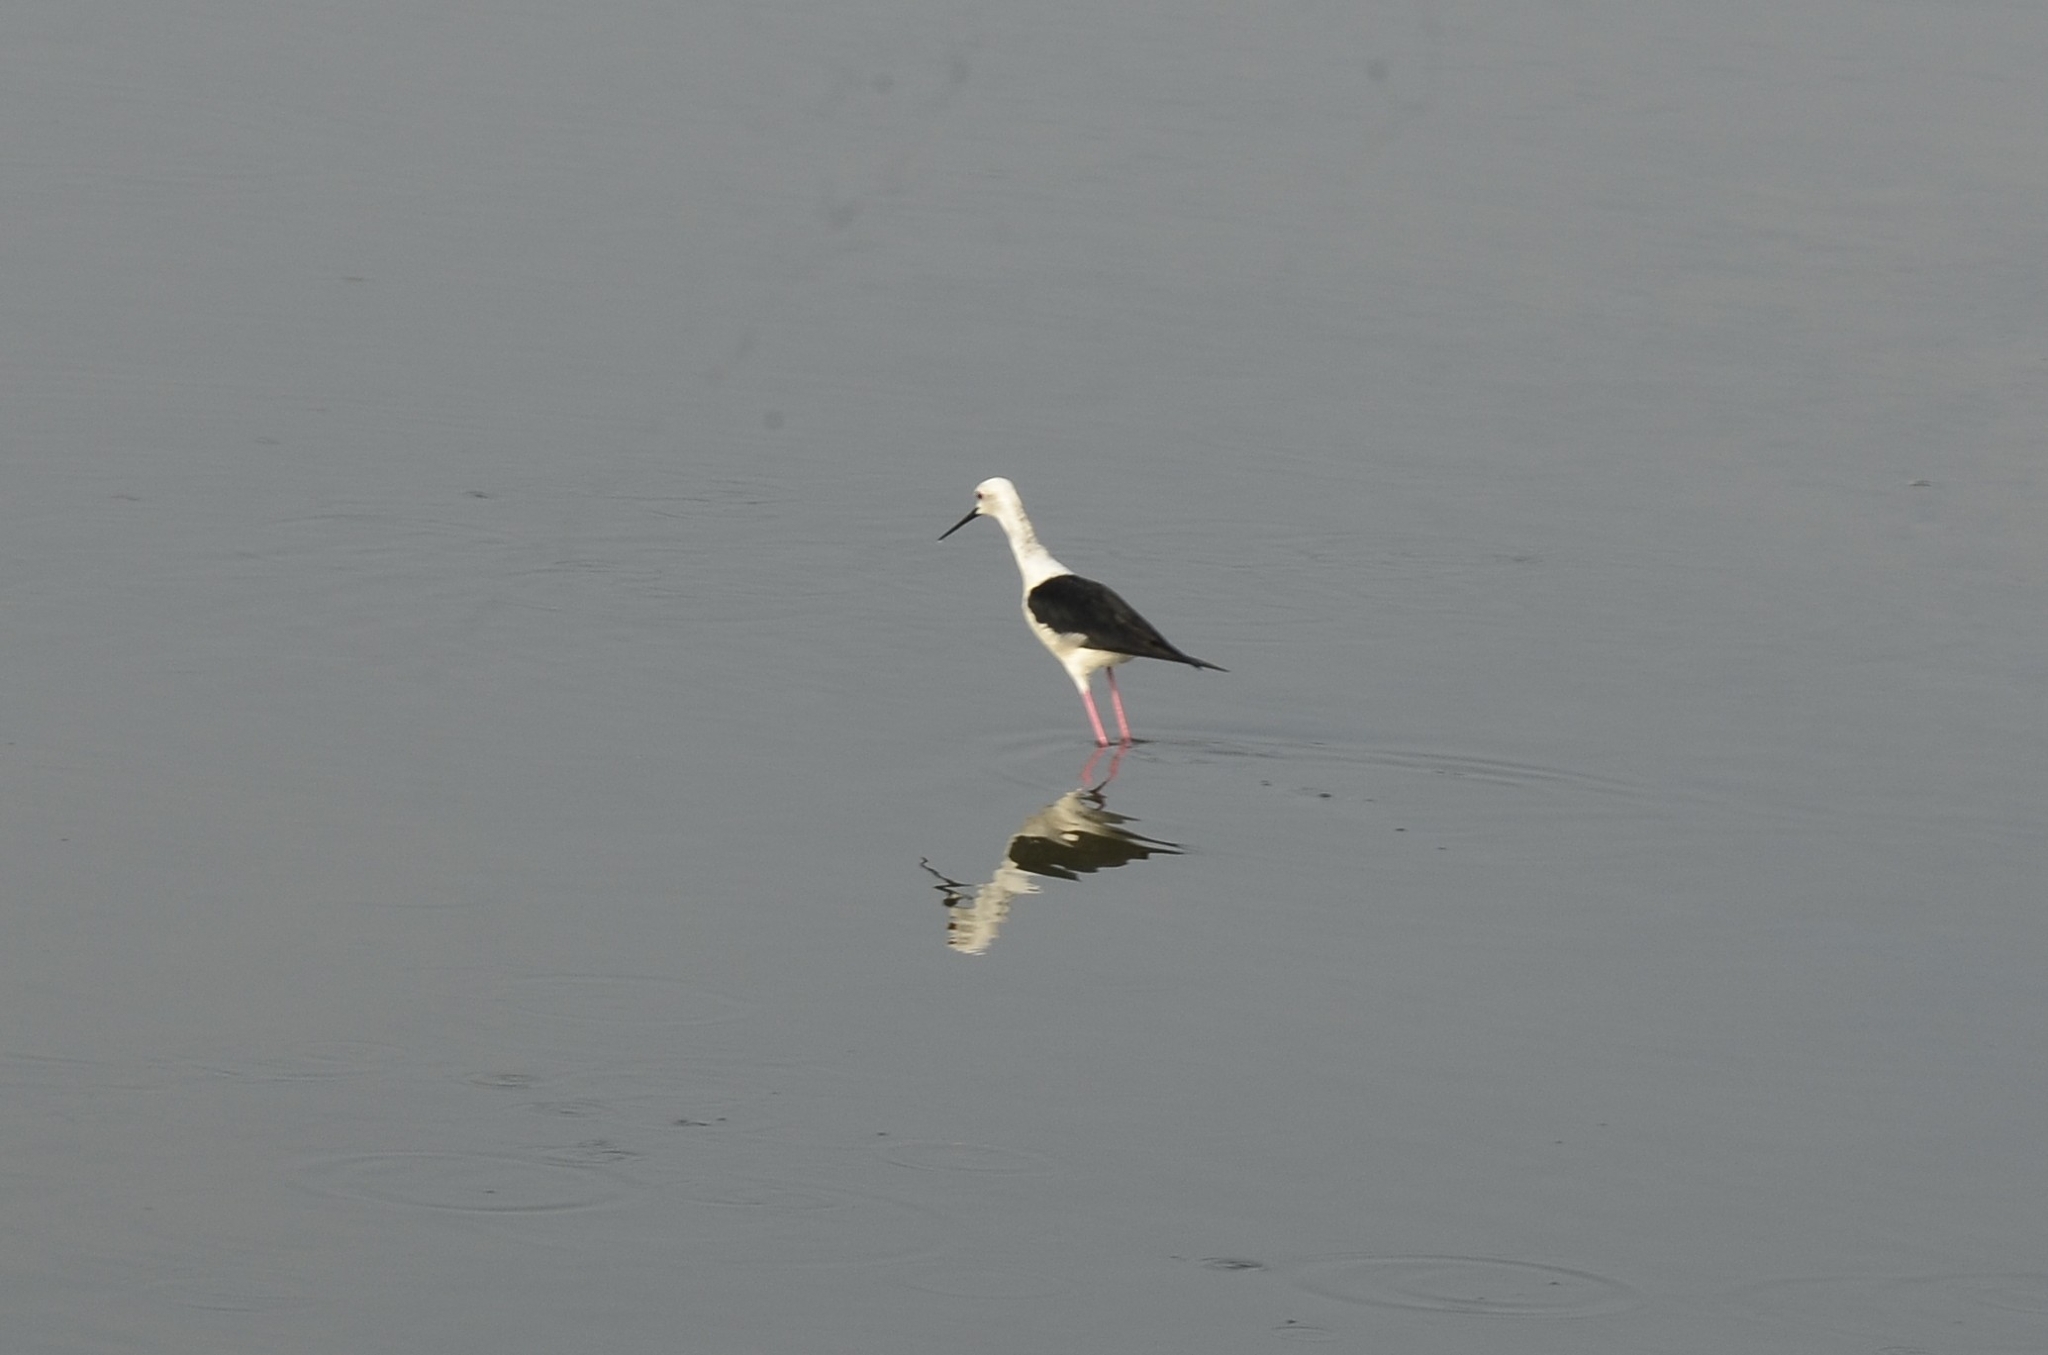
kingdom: Animalia
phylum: Chordata
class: Aves
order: Charadriiformes
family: Recurvirostridae
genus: Himantopus
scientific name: Himantopus himantopus
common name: Black-winged stilt
